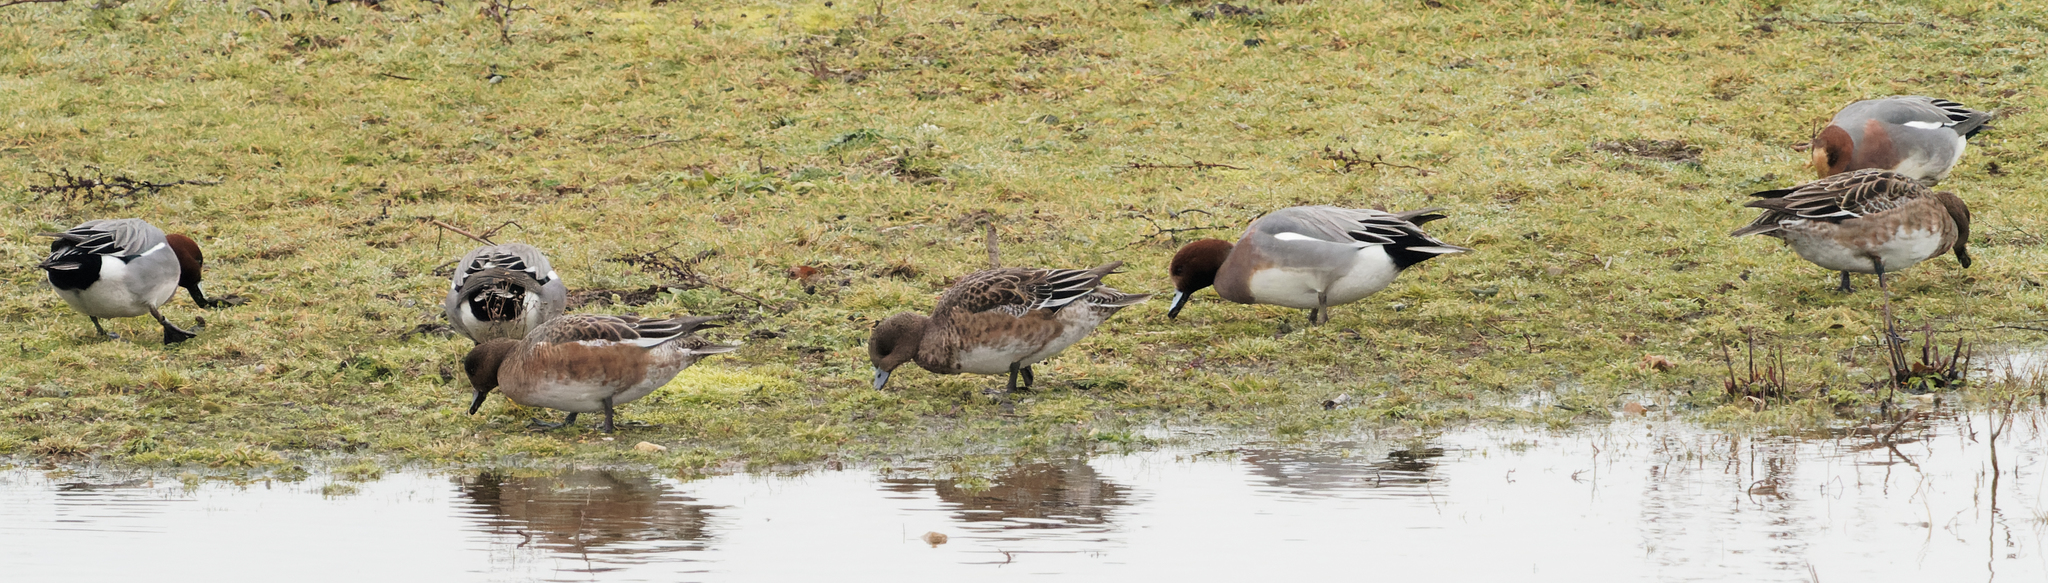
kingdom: Animalia
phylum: Chordata
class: Aves
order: Anseriformes
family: Anatidae
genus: Mareca
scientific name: Mareca penelope
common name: Eurasian wigeon
